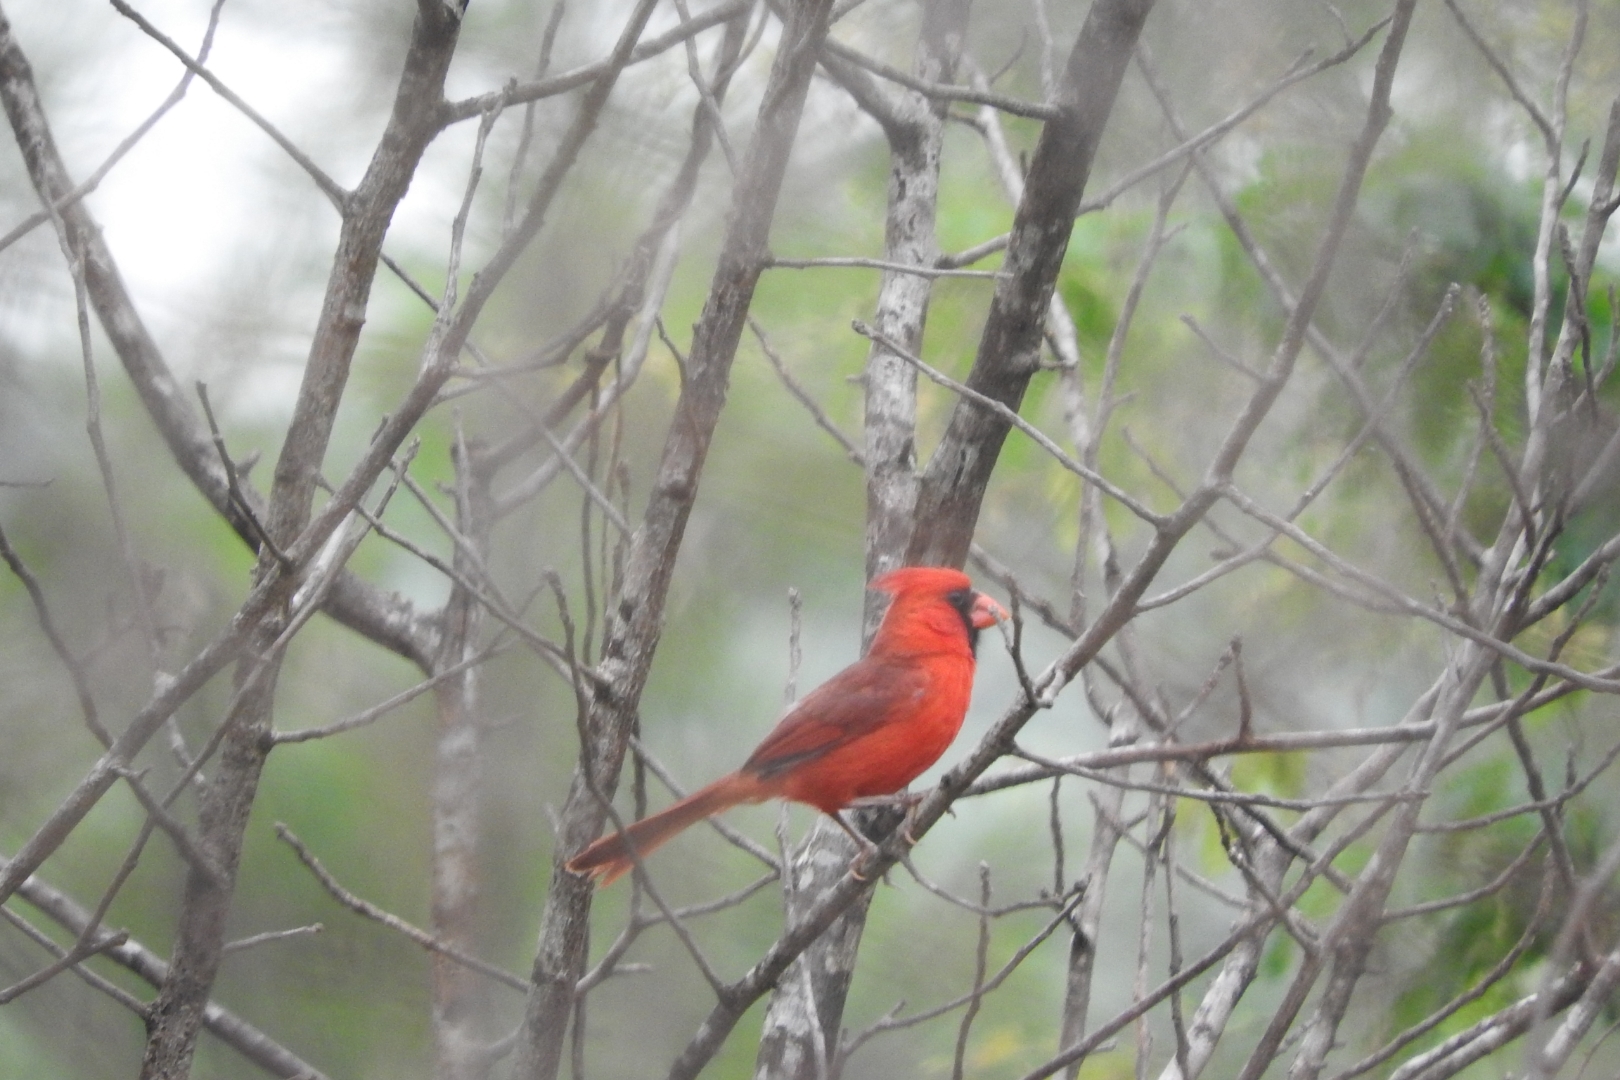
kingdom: Animalia
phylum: Chordata
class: Aves
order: Passeriformes
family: Cardinalidae
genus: Cardinalis
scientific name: Cardinalis cardinalis
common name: Northern cardinal
